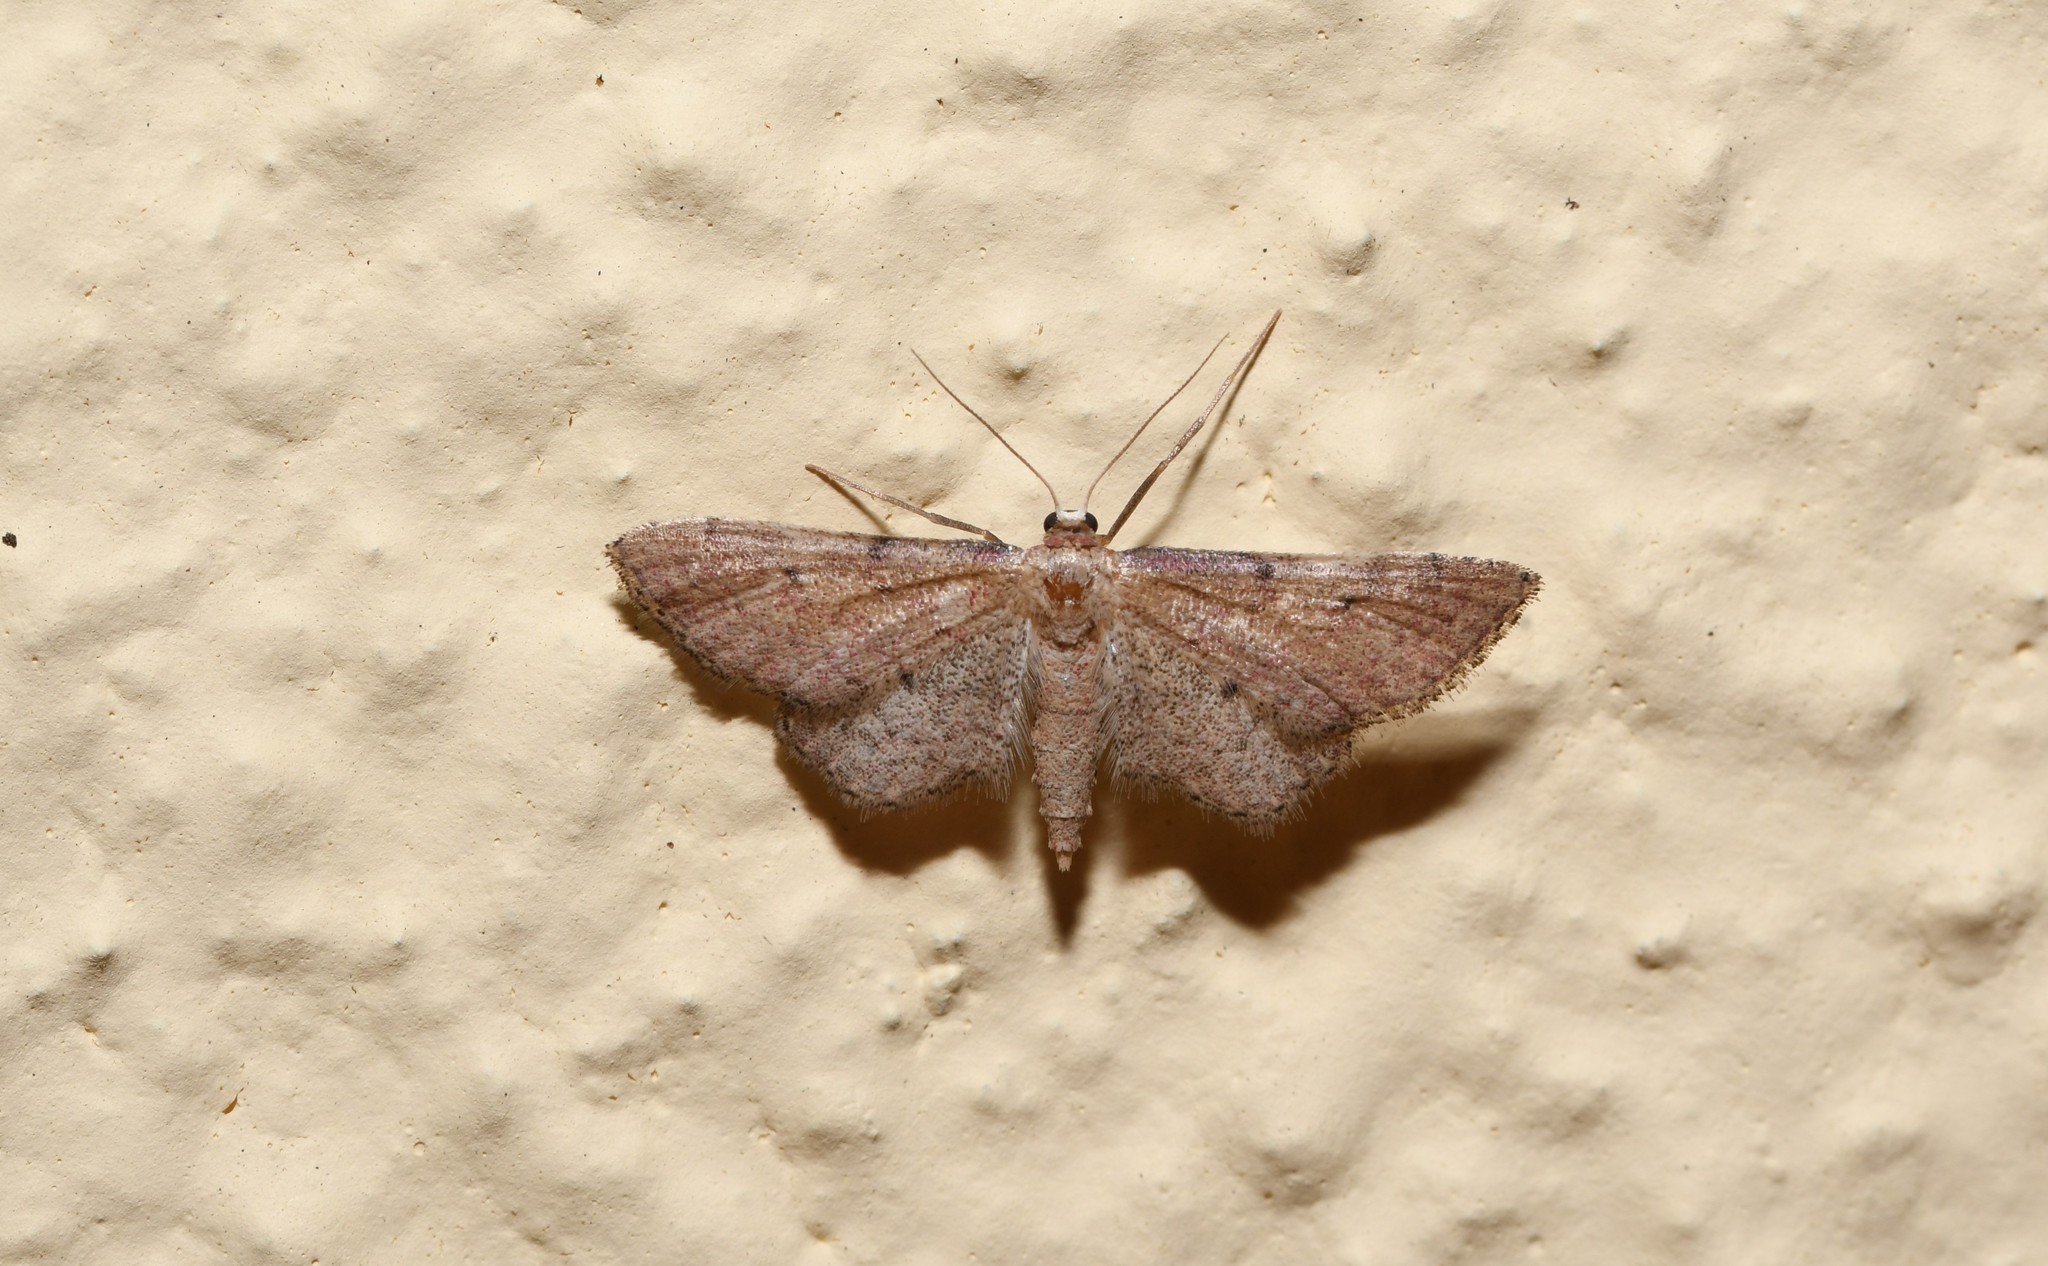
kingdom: Animalia
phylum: Arthropoda
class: Insecta
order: Lepidoptera
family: Geometridae
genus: Idaea
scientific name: Idaea infirmaria
